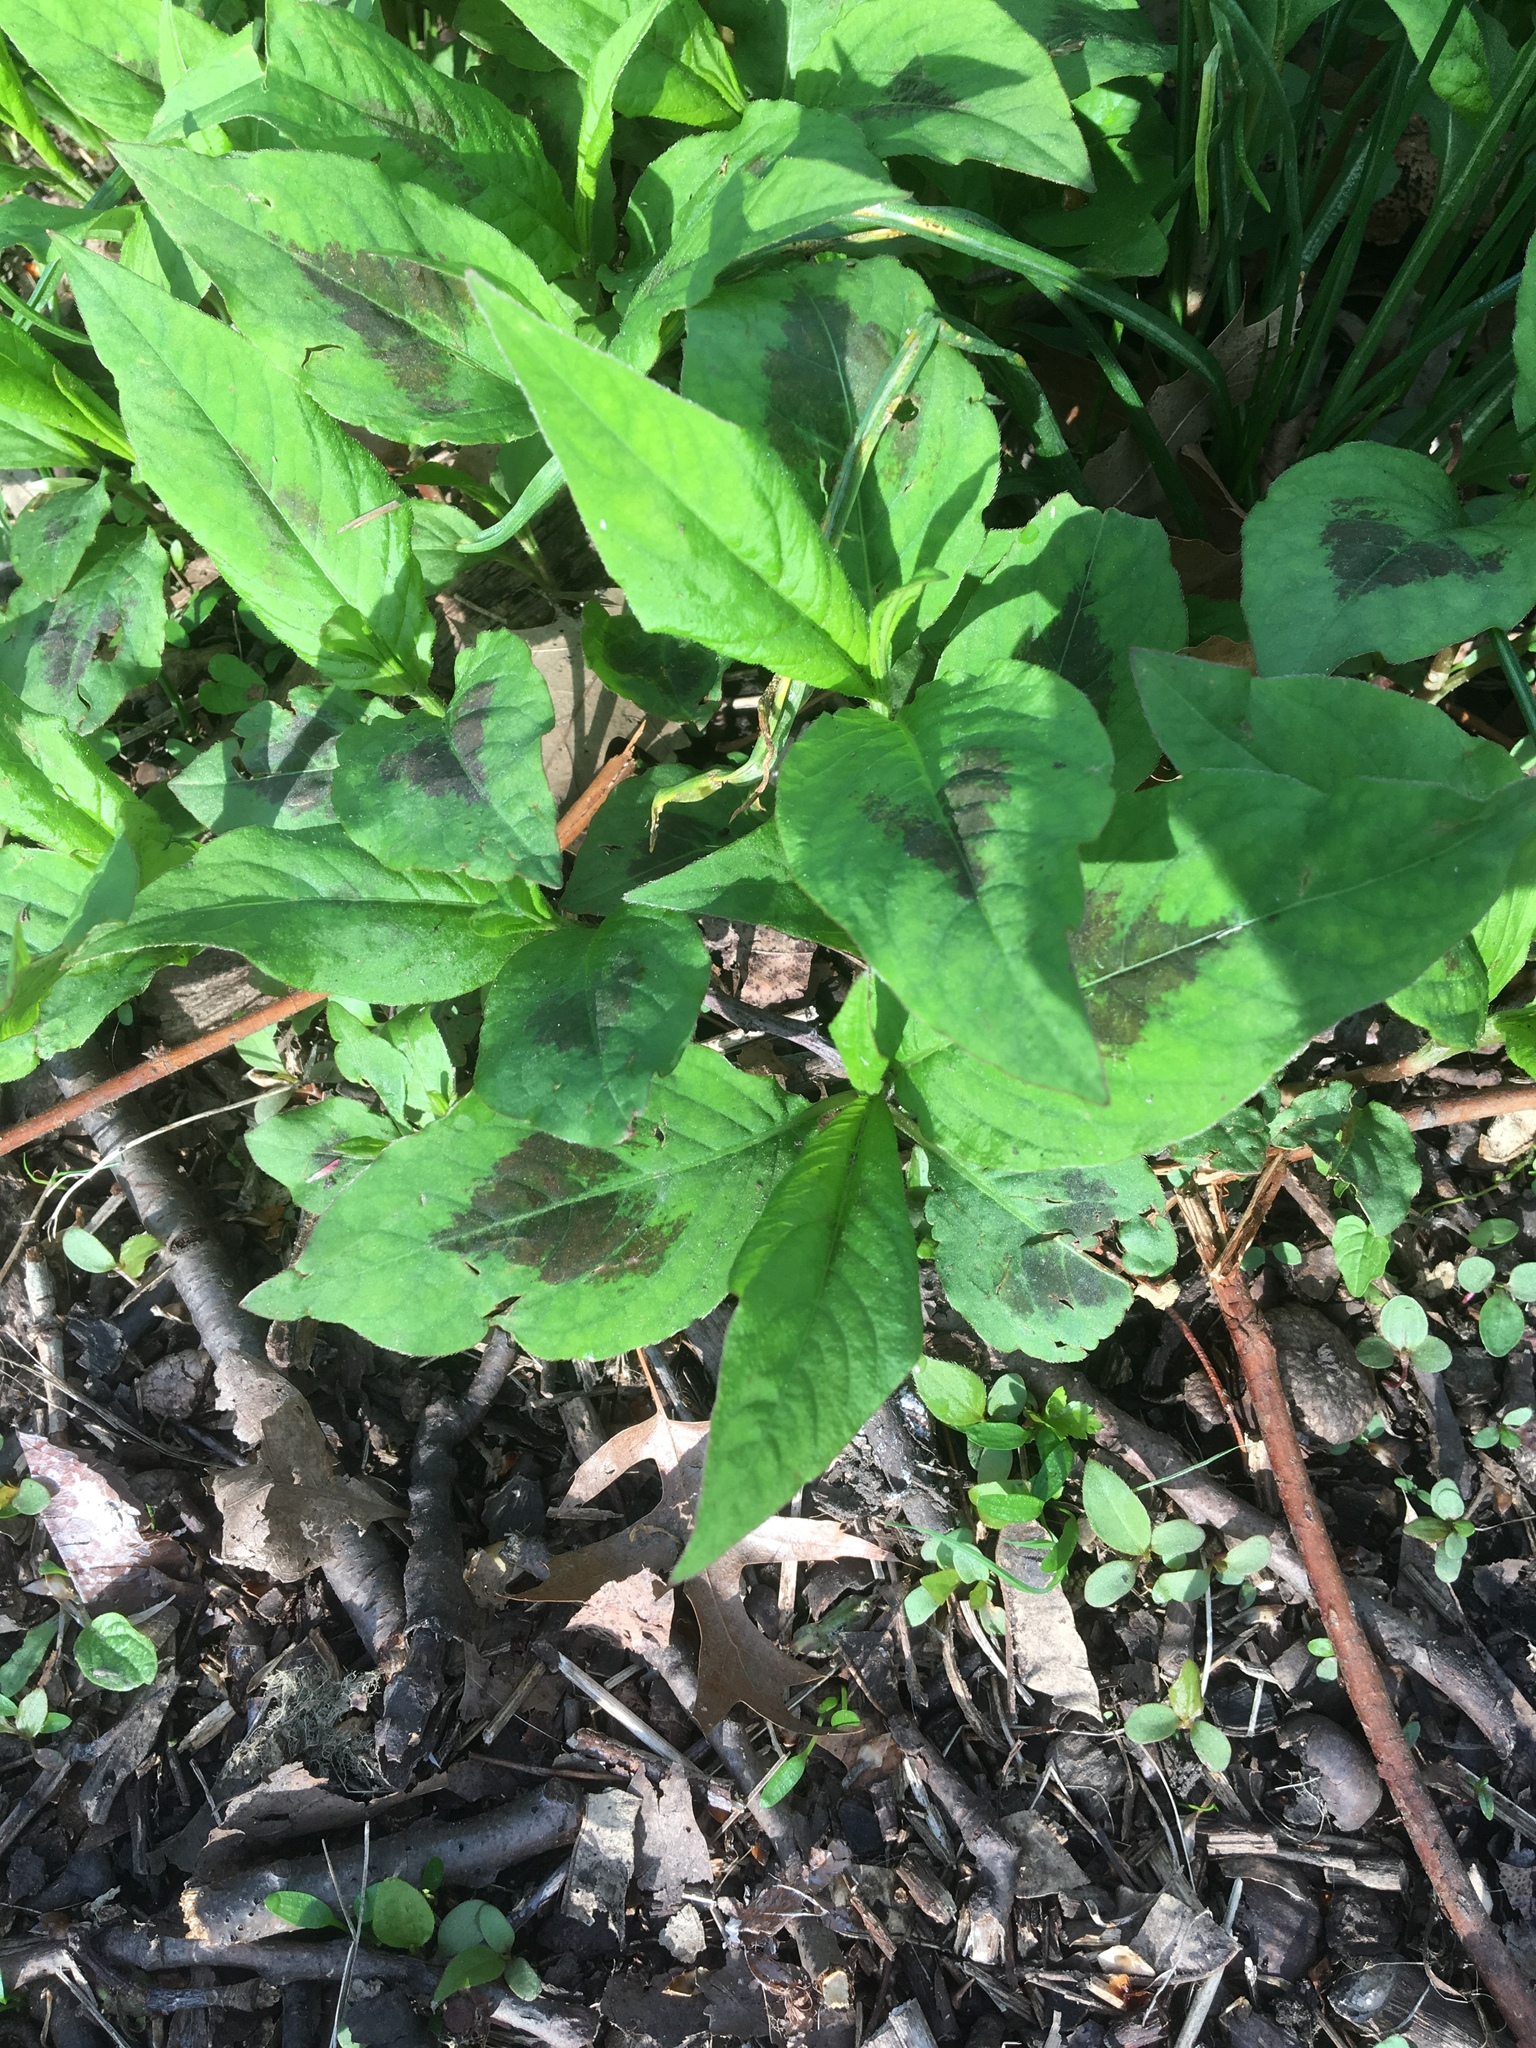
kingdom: Plantae
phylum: Tracheophyta
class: Magnoliopsida
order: Caryophyllales
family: Polygonaceae
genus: Persicaria
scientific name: Persicaria virginiana
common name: Jumpseed
